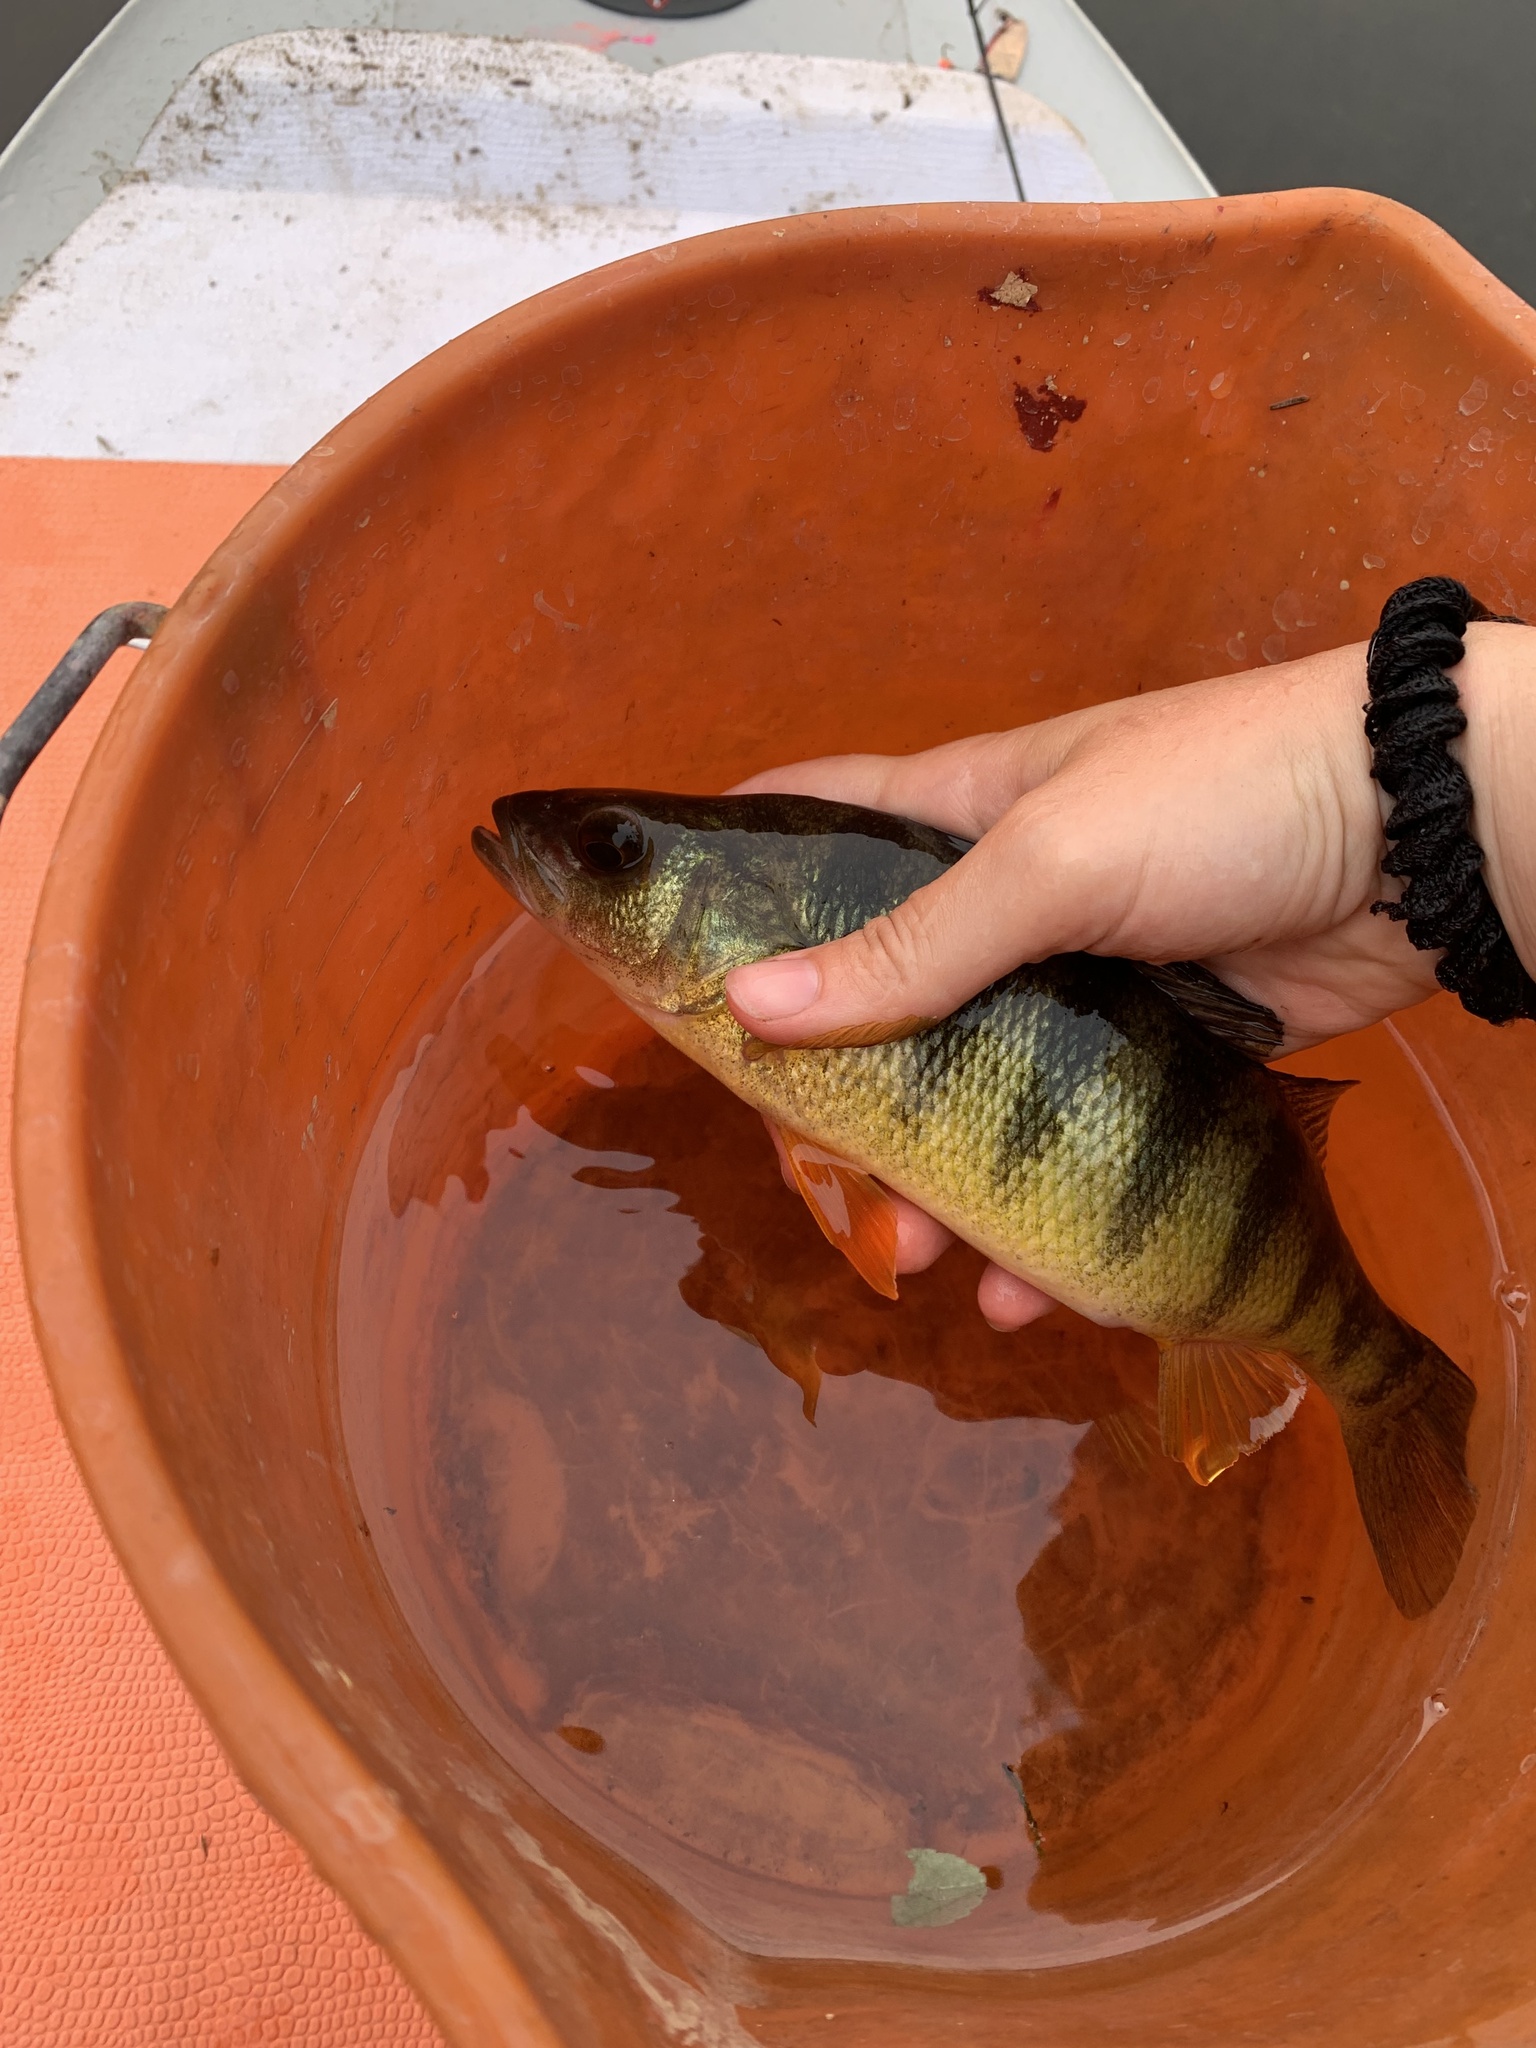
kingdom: Animalia
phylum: Chordata
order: Perciformes
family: Percidae
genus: Perca
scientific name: Perca flavescens
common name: Yellow perch
